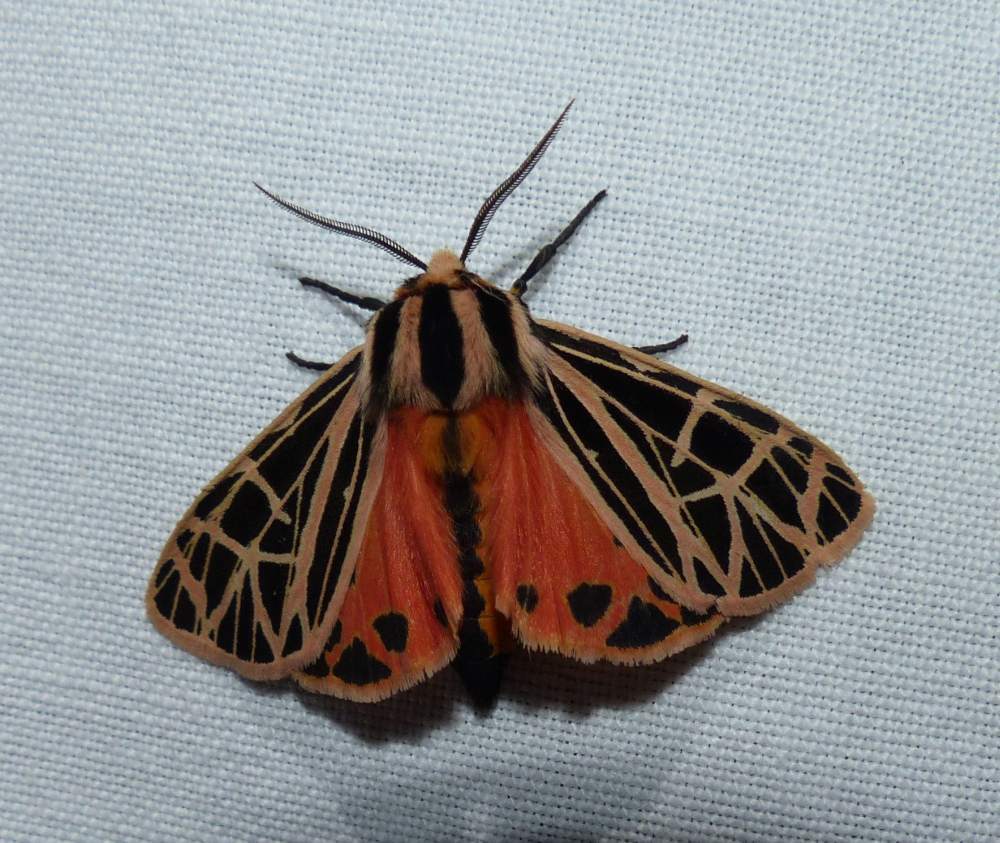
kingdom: Animalia
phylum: Arthropoda
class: Insecta
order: Lepidoptera
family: Erebidae
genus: Grammia
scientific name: Grammia parthenice
